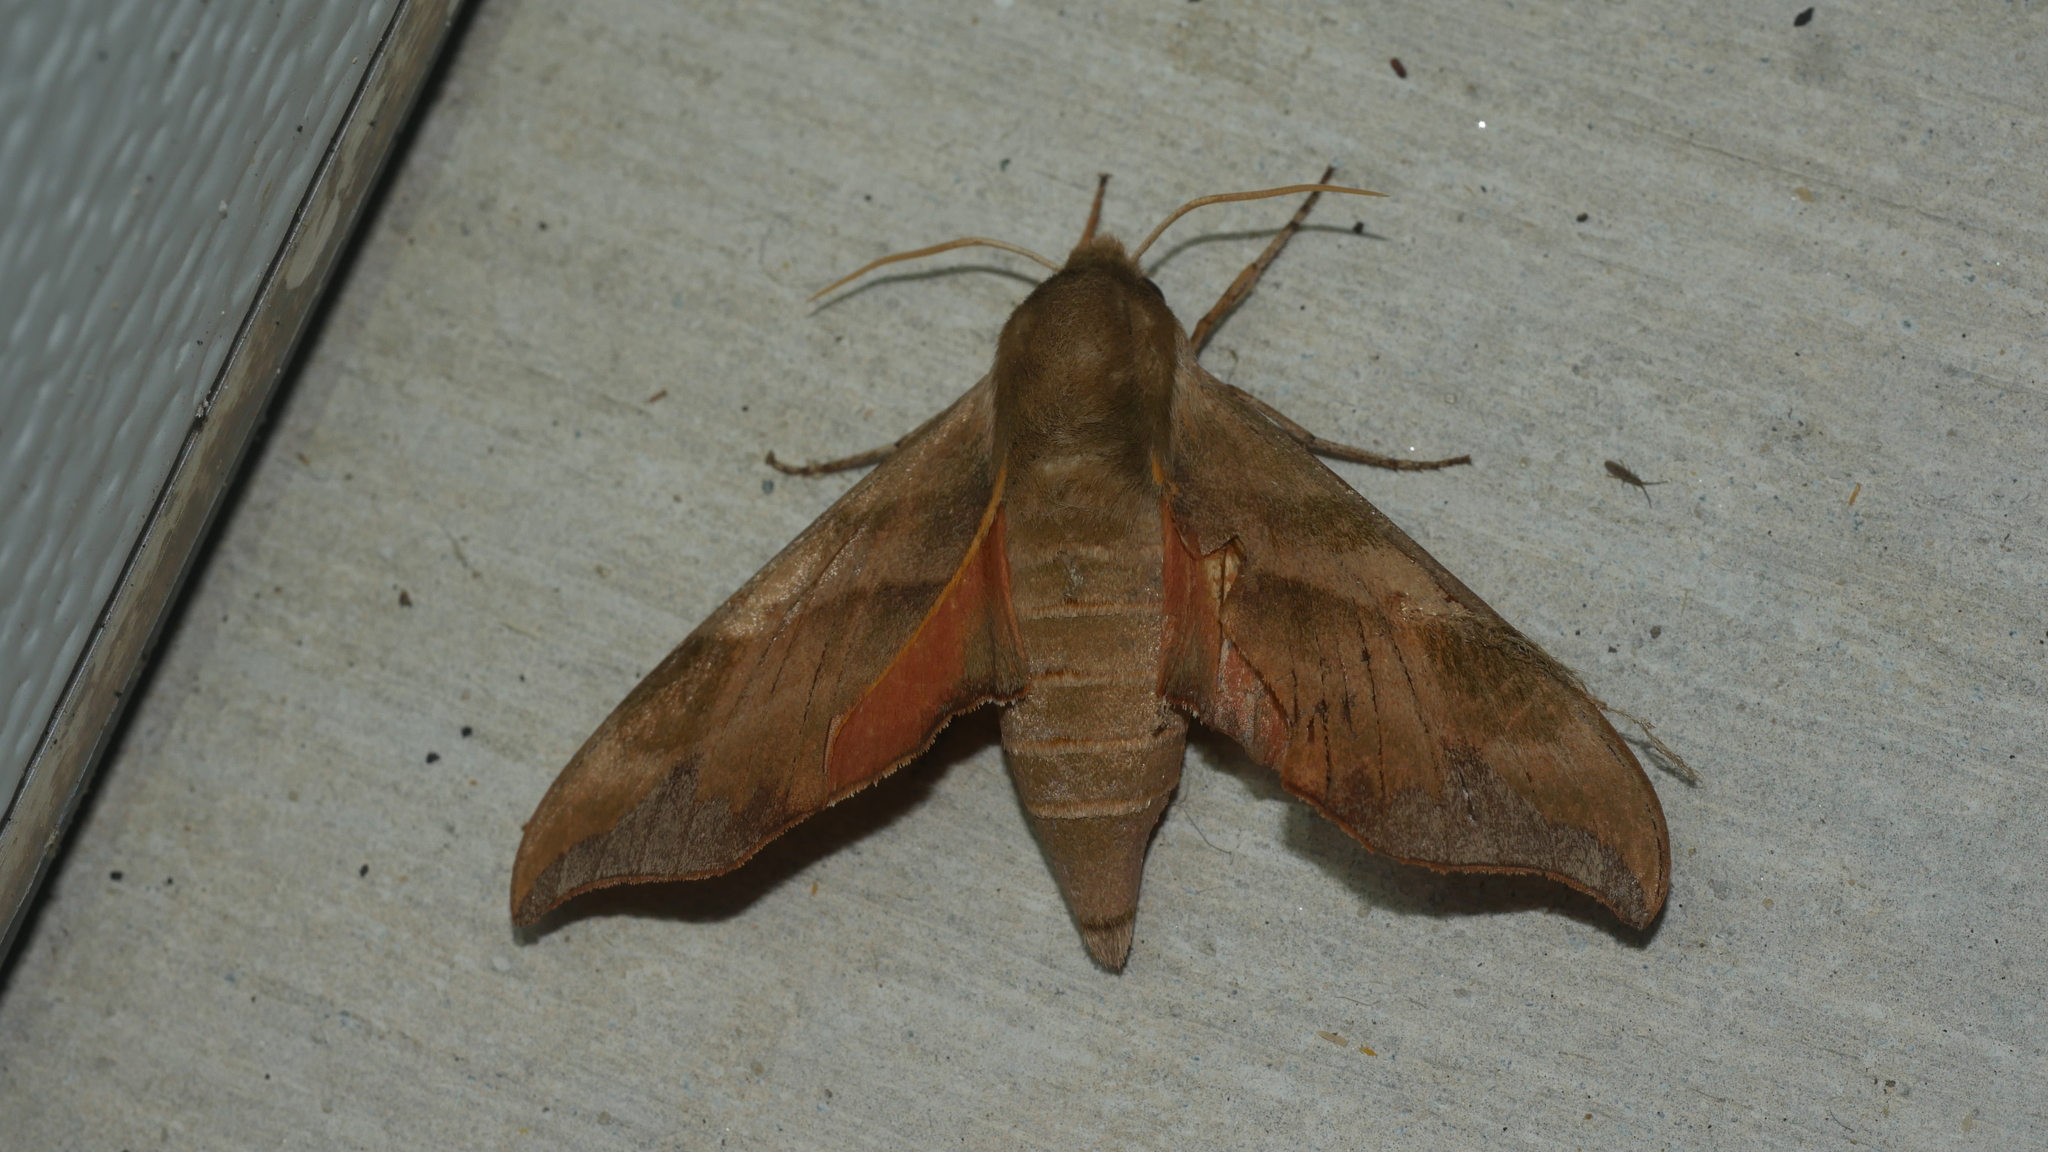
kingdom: Animalia
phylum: Arthropoda
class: Insecta
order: Lepidoptera
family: Sphingidae
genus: Darapsa
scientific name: Darapsa myron
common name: Hog sphinx
